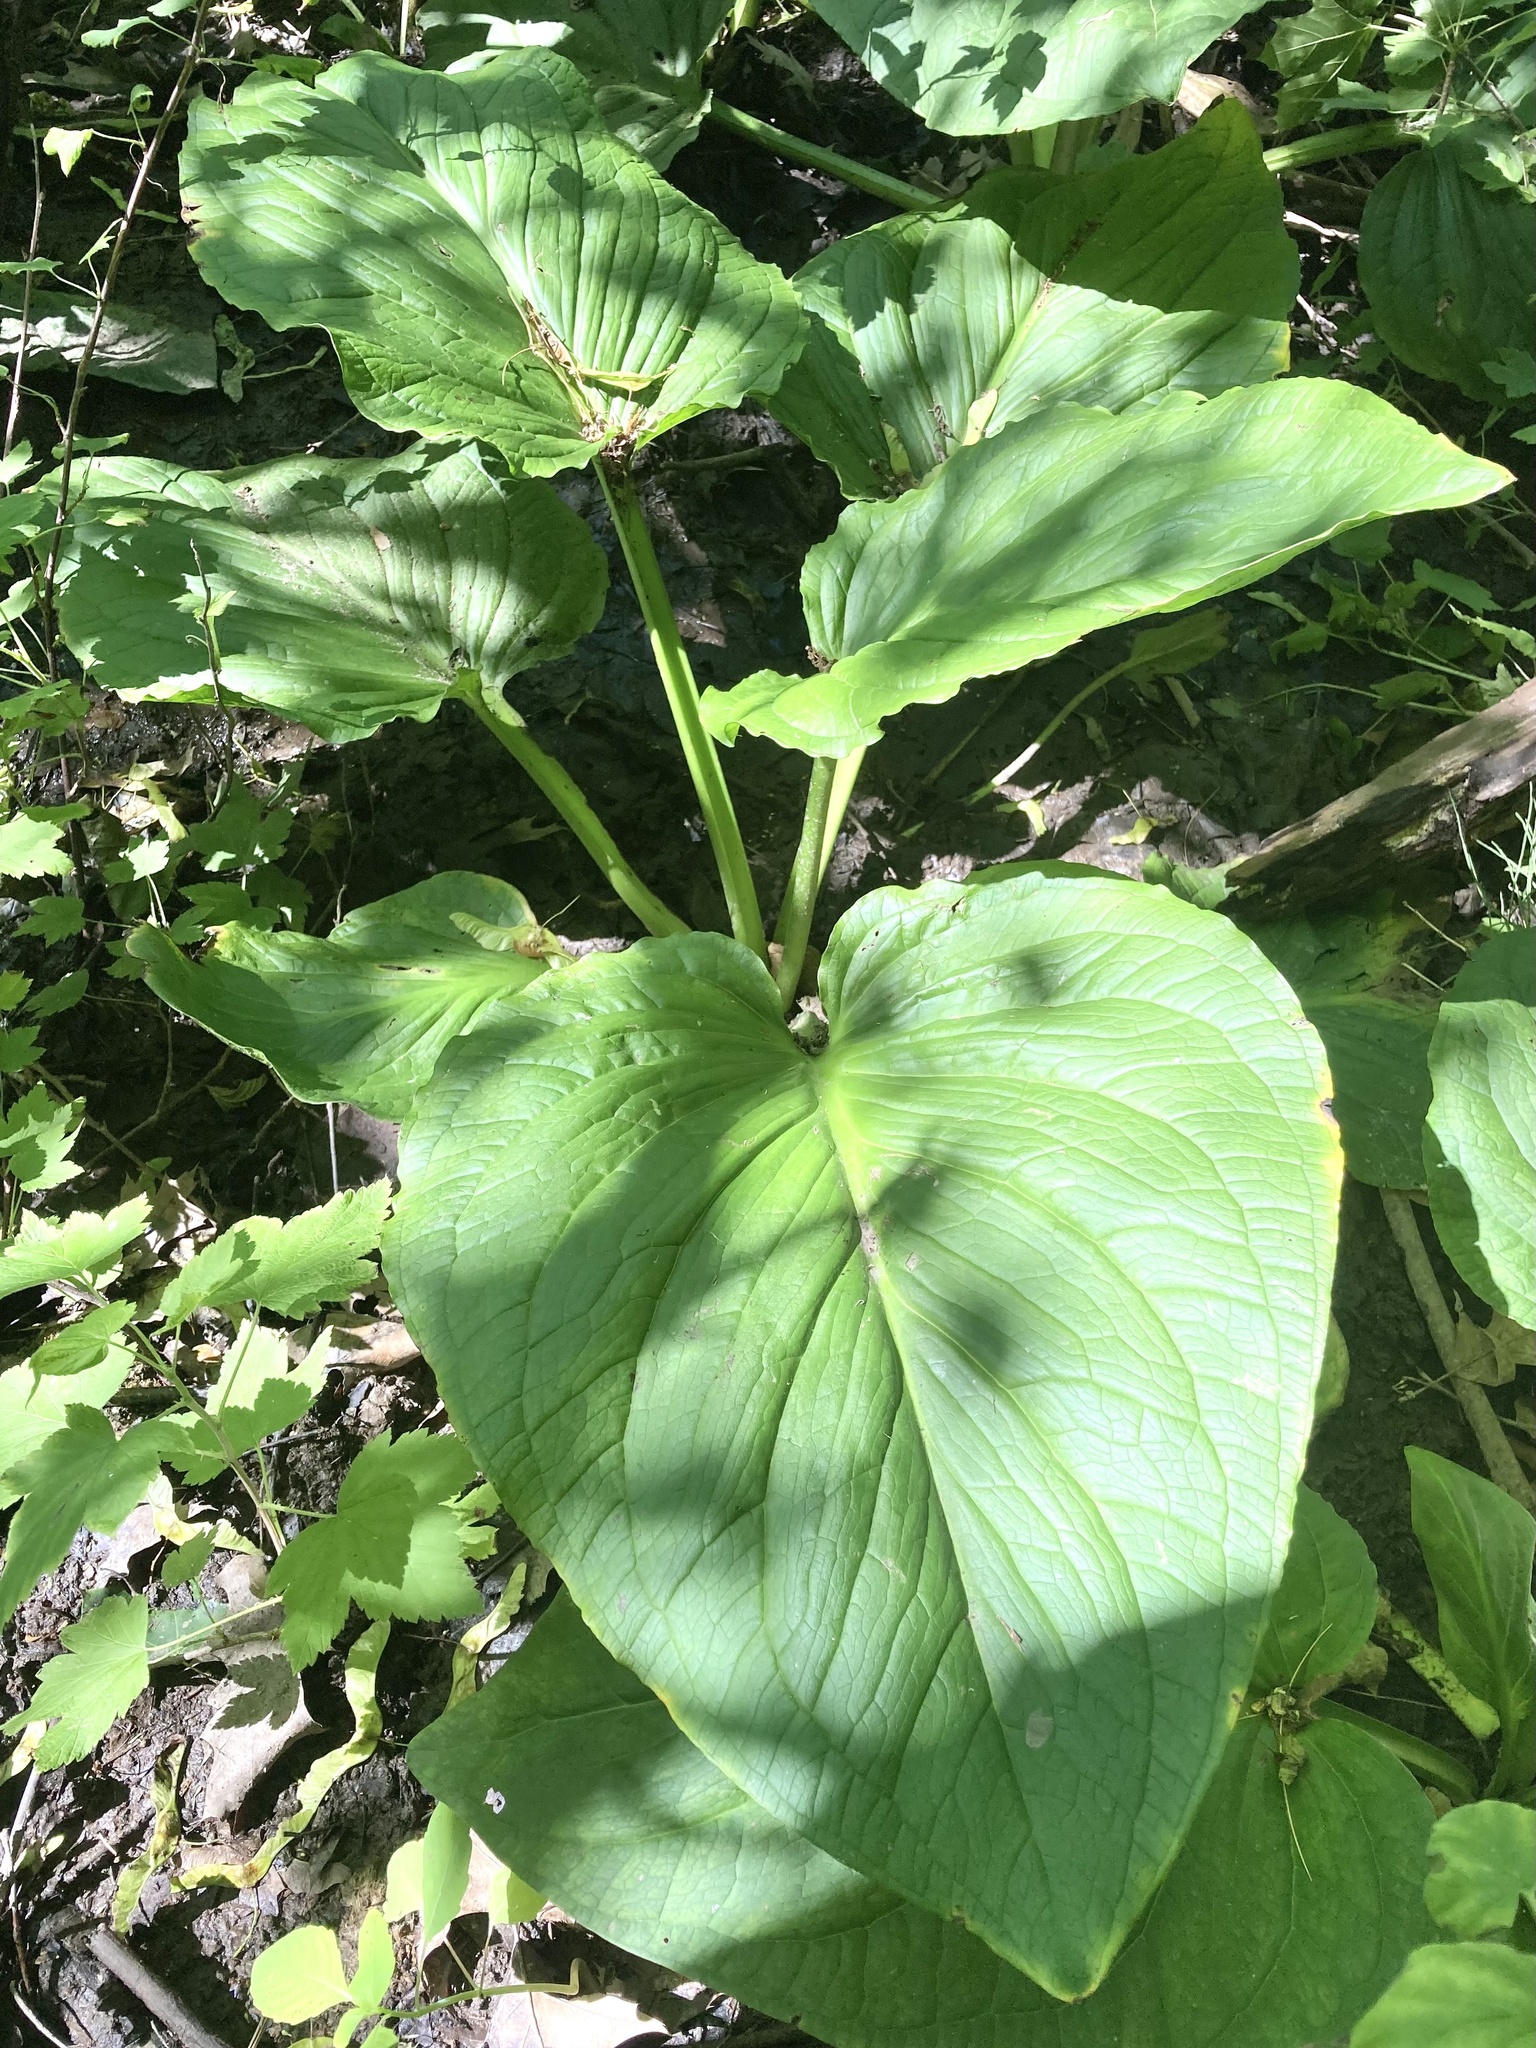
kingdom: Plantae
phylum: Tracheophyta
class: Liliopsida
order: Alismatales
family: Araceae
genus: Symplocarpus
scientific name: Symplocarpus foetidus
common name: Eastern skunk cabbage
